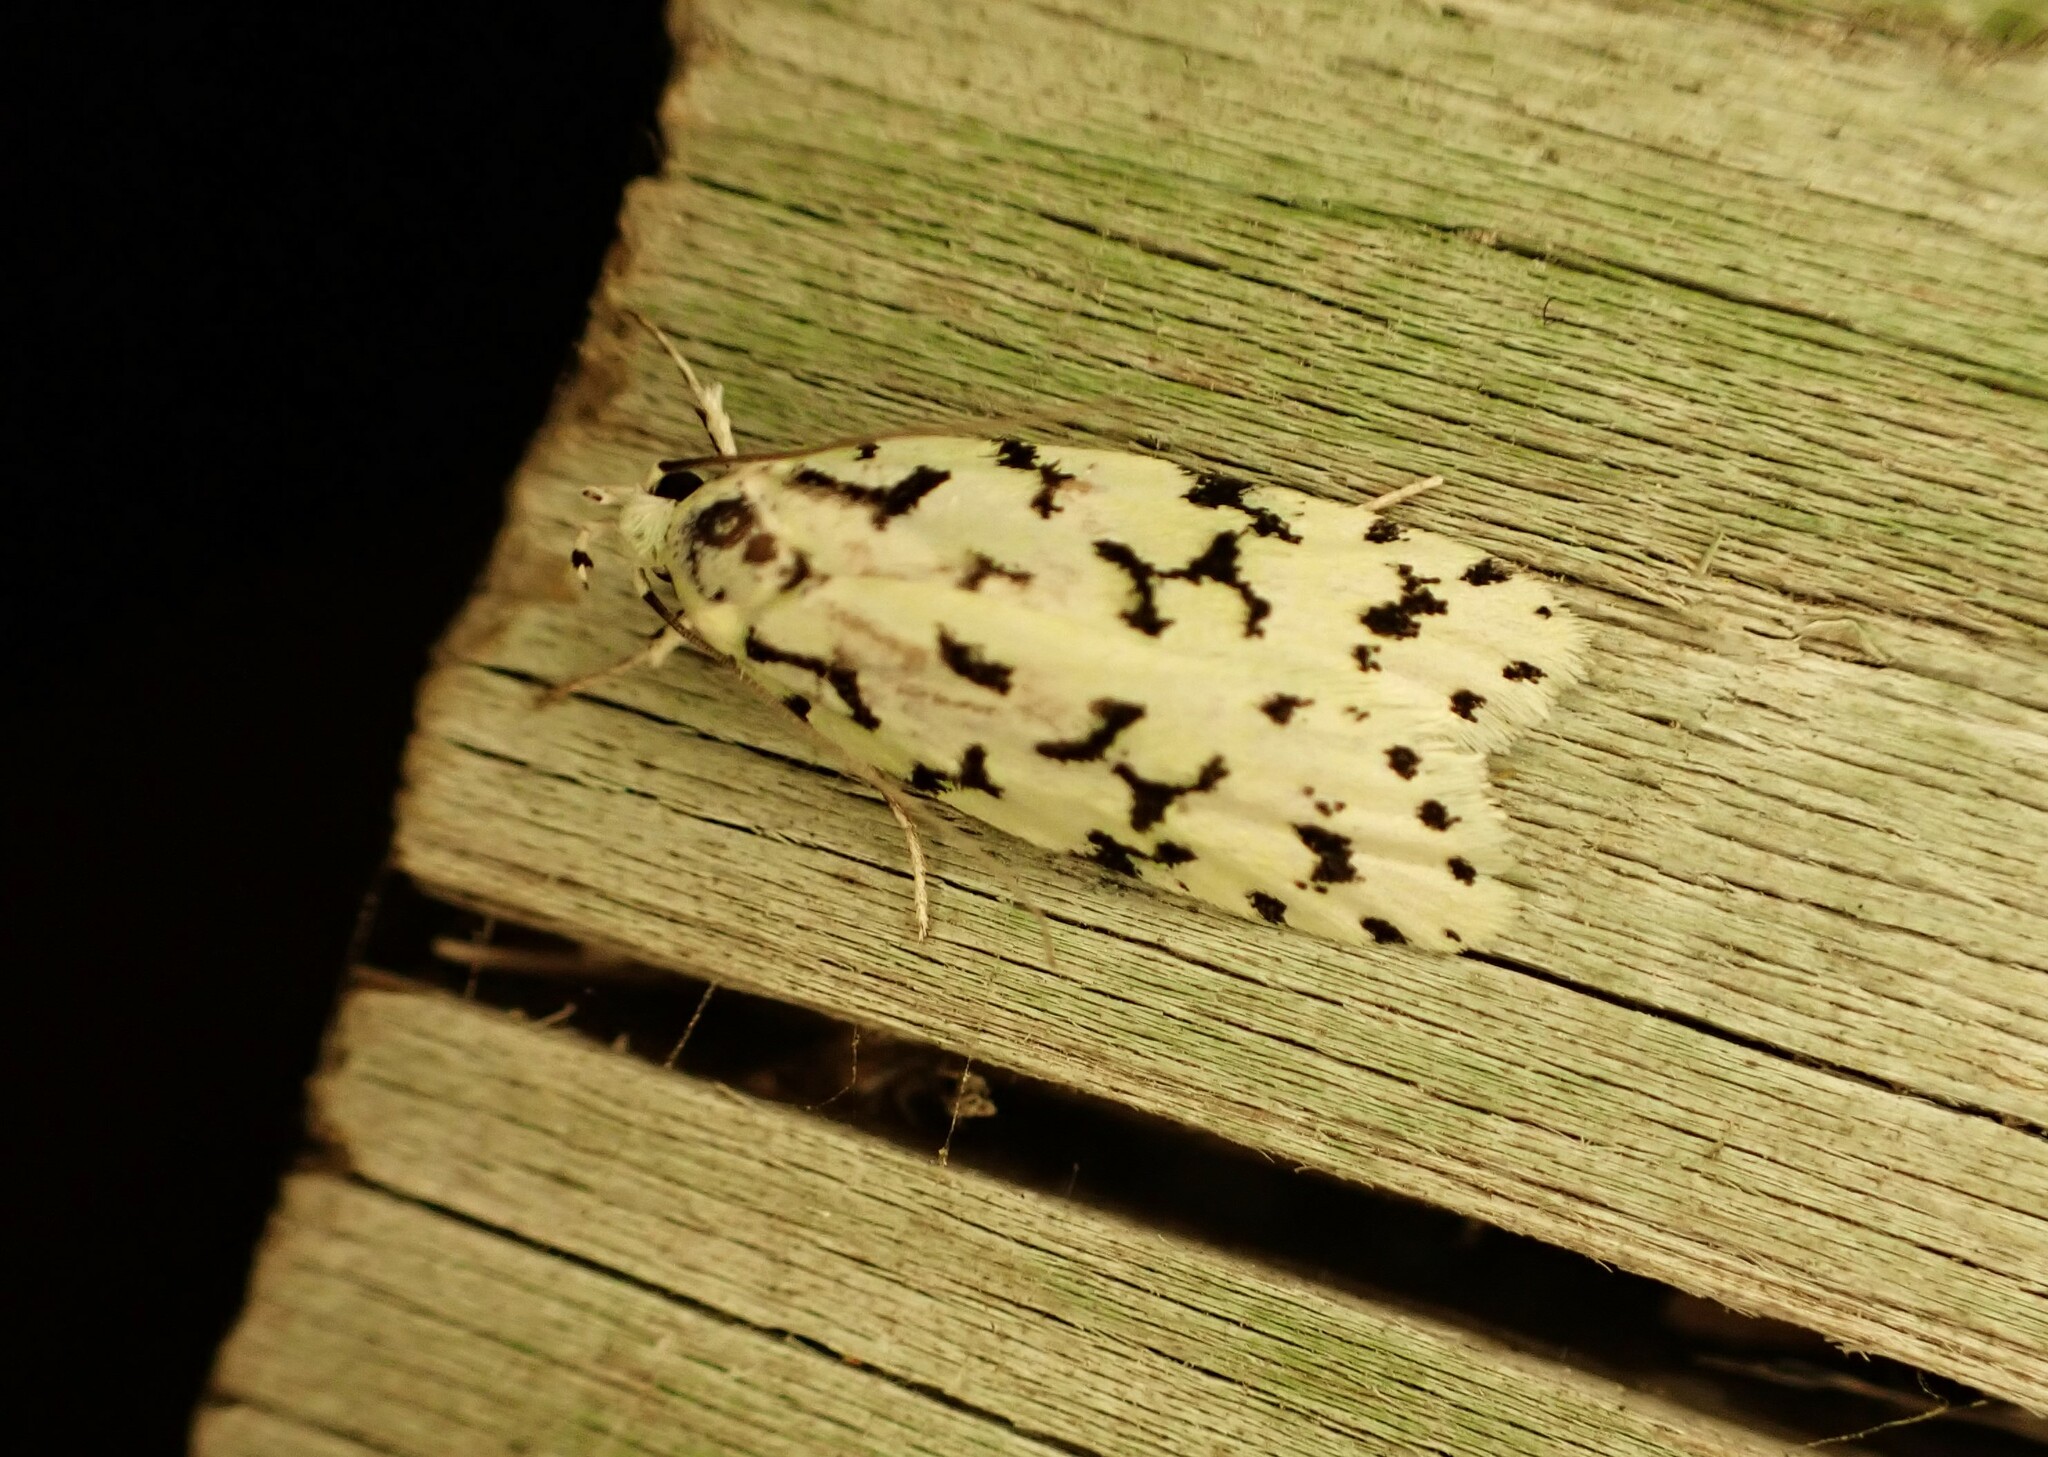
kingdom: Animalia
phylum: Arthropoda
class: Insecta
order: Lepidoptera
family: Oecophoridae
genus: Izatha
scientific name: Izatha huttoni
